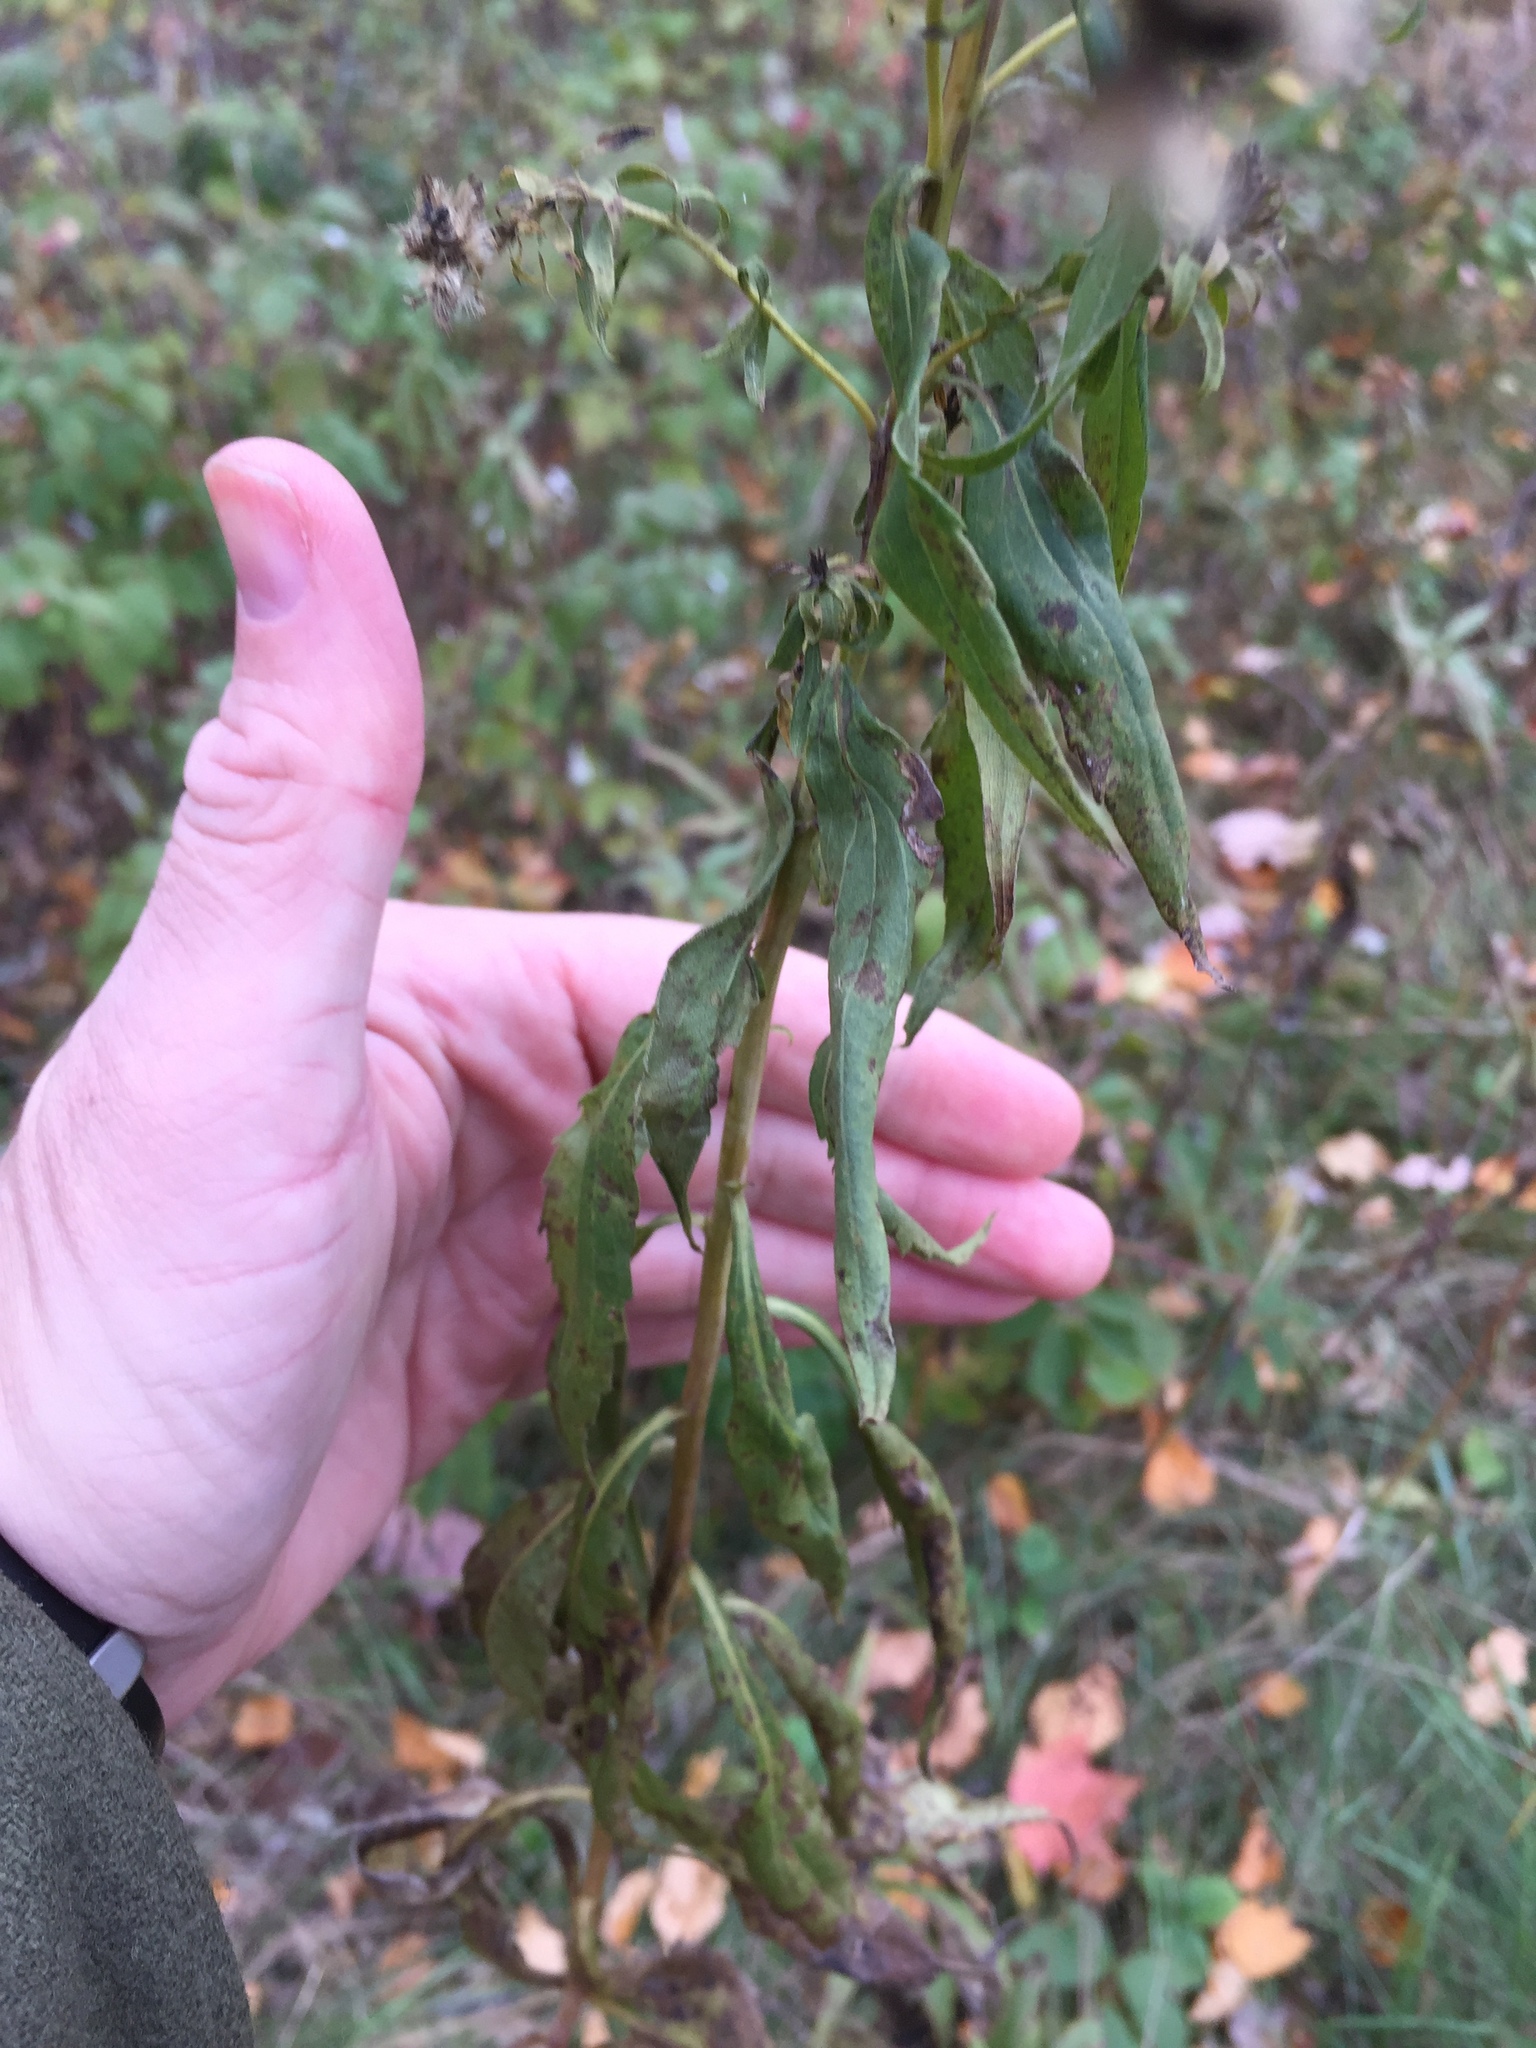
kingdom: Plantae
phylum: Tracheophyta
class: Magnoliopsida
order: Asterales
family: Asteraceae
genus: Solidago
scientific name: Solidago canadensis
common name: Canada goldenrod
